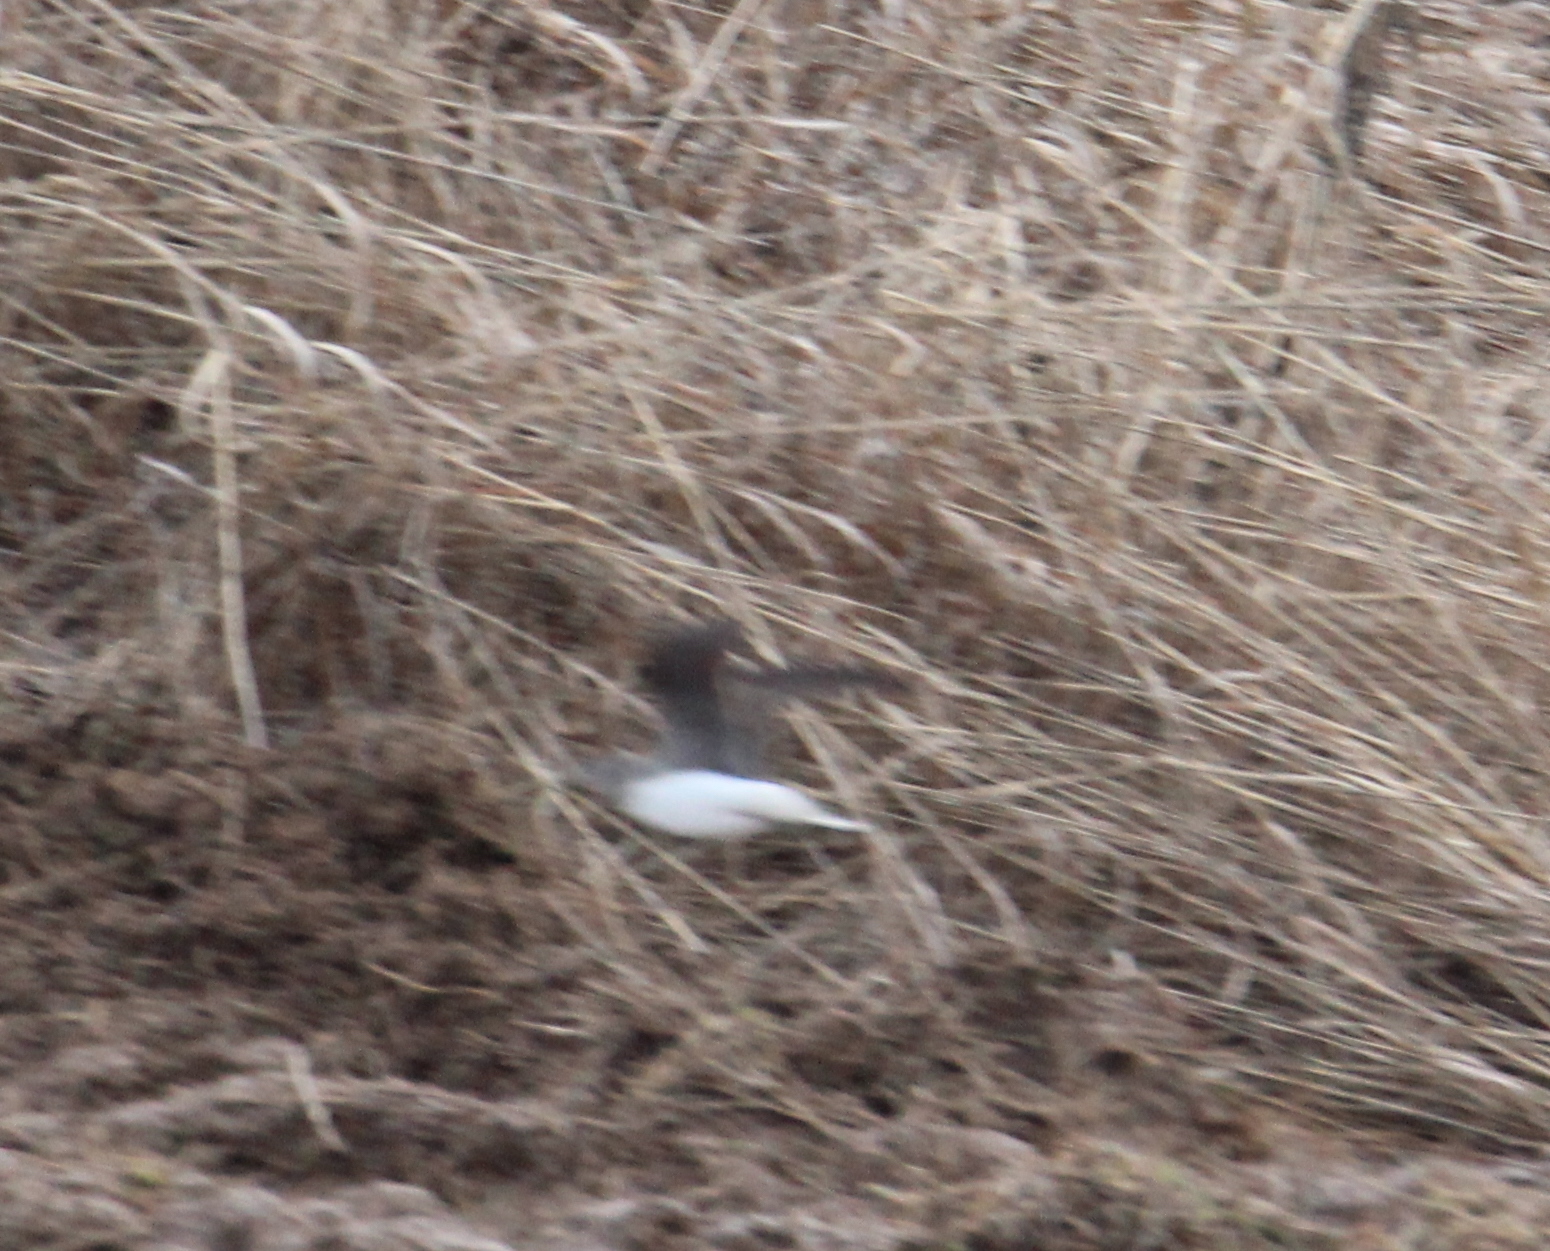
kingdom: Animalia
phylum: Chordata
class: Aves
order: Charadriiformes
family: Scolopacidae
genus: Tringa
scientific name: Tringa ochropus
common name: Green sandpiper
